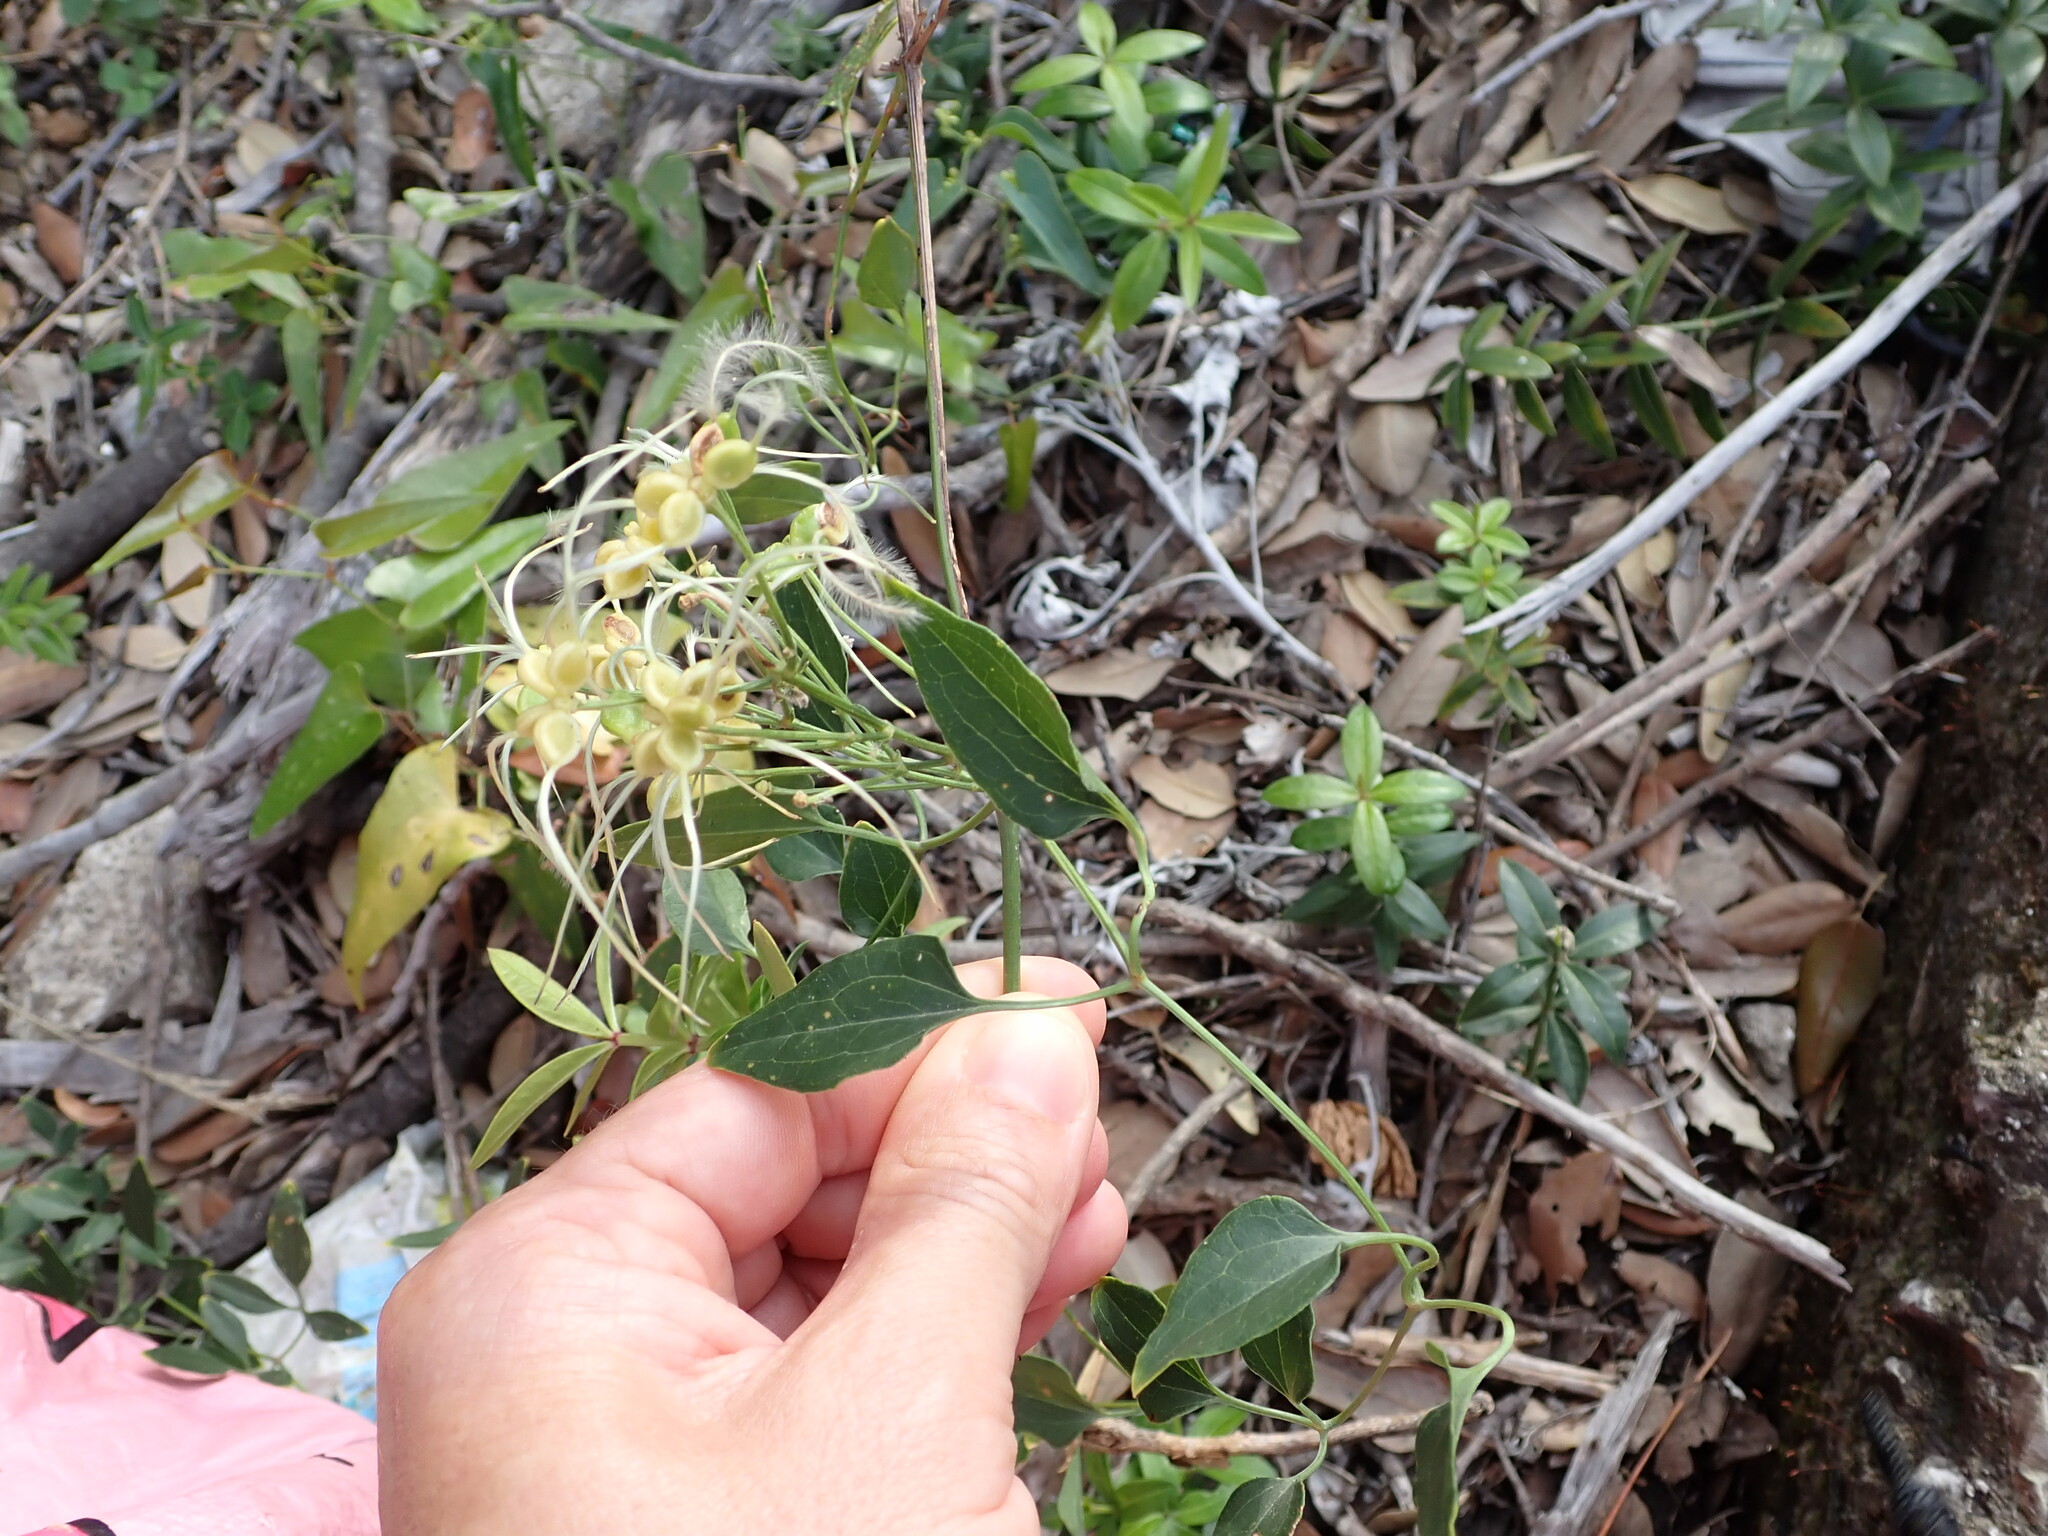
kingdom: Plantae
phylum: Tracheophyta
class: Magnoliopsida
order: Ranunculales
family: Ranunculaceae
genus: Clematis
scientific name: Clematis flammula
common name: Virgin's-bower
